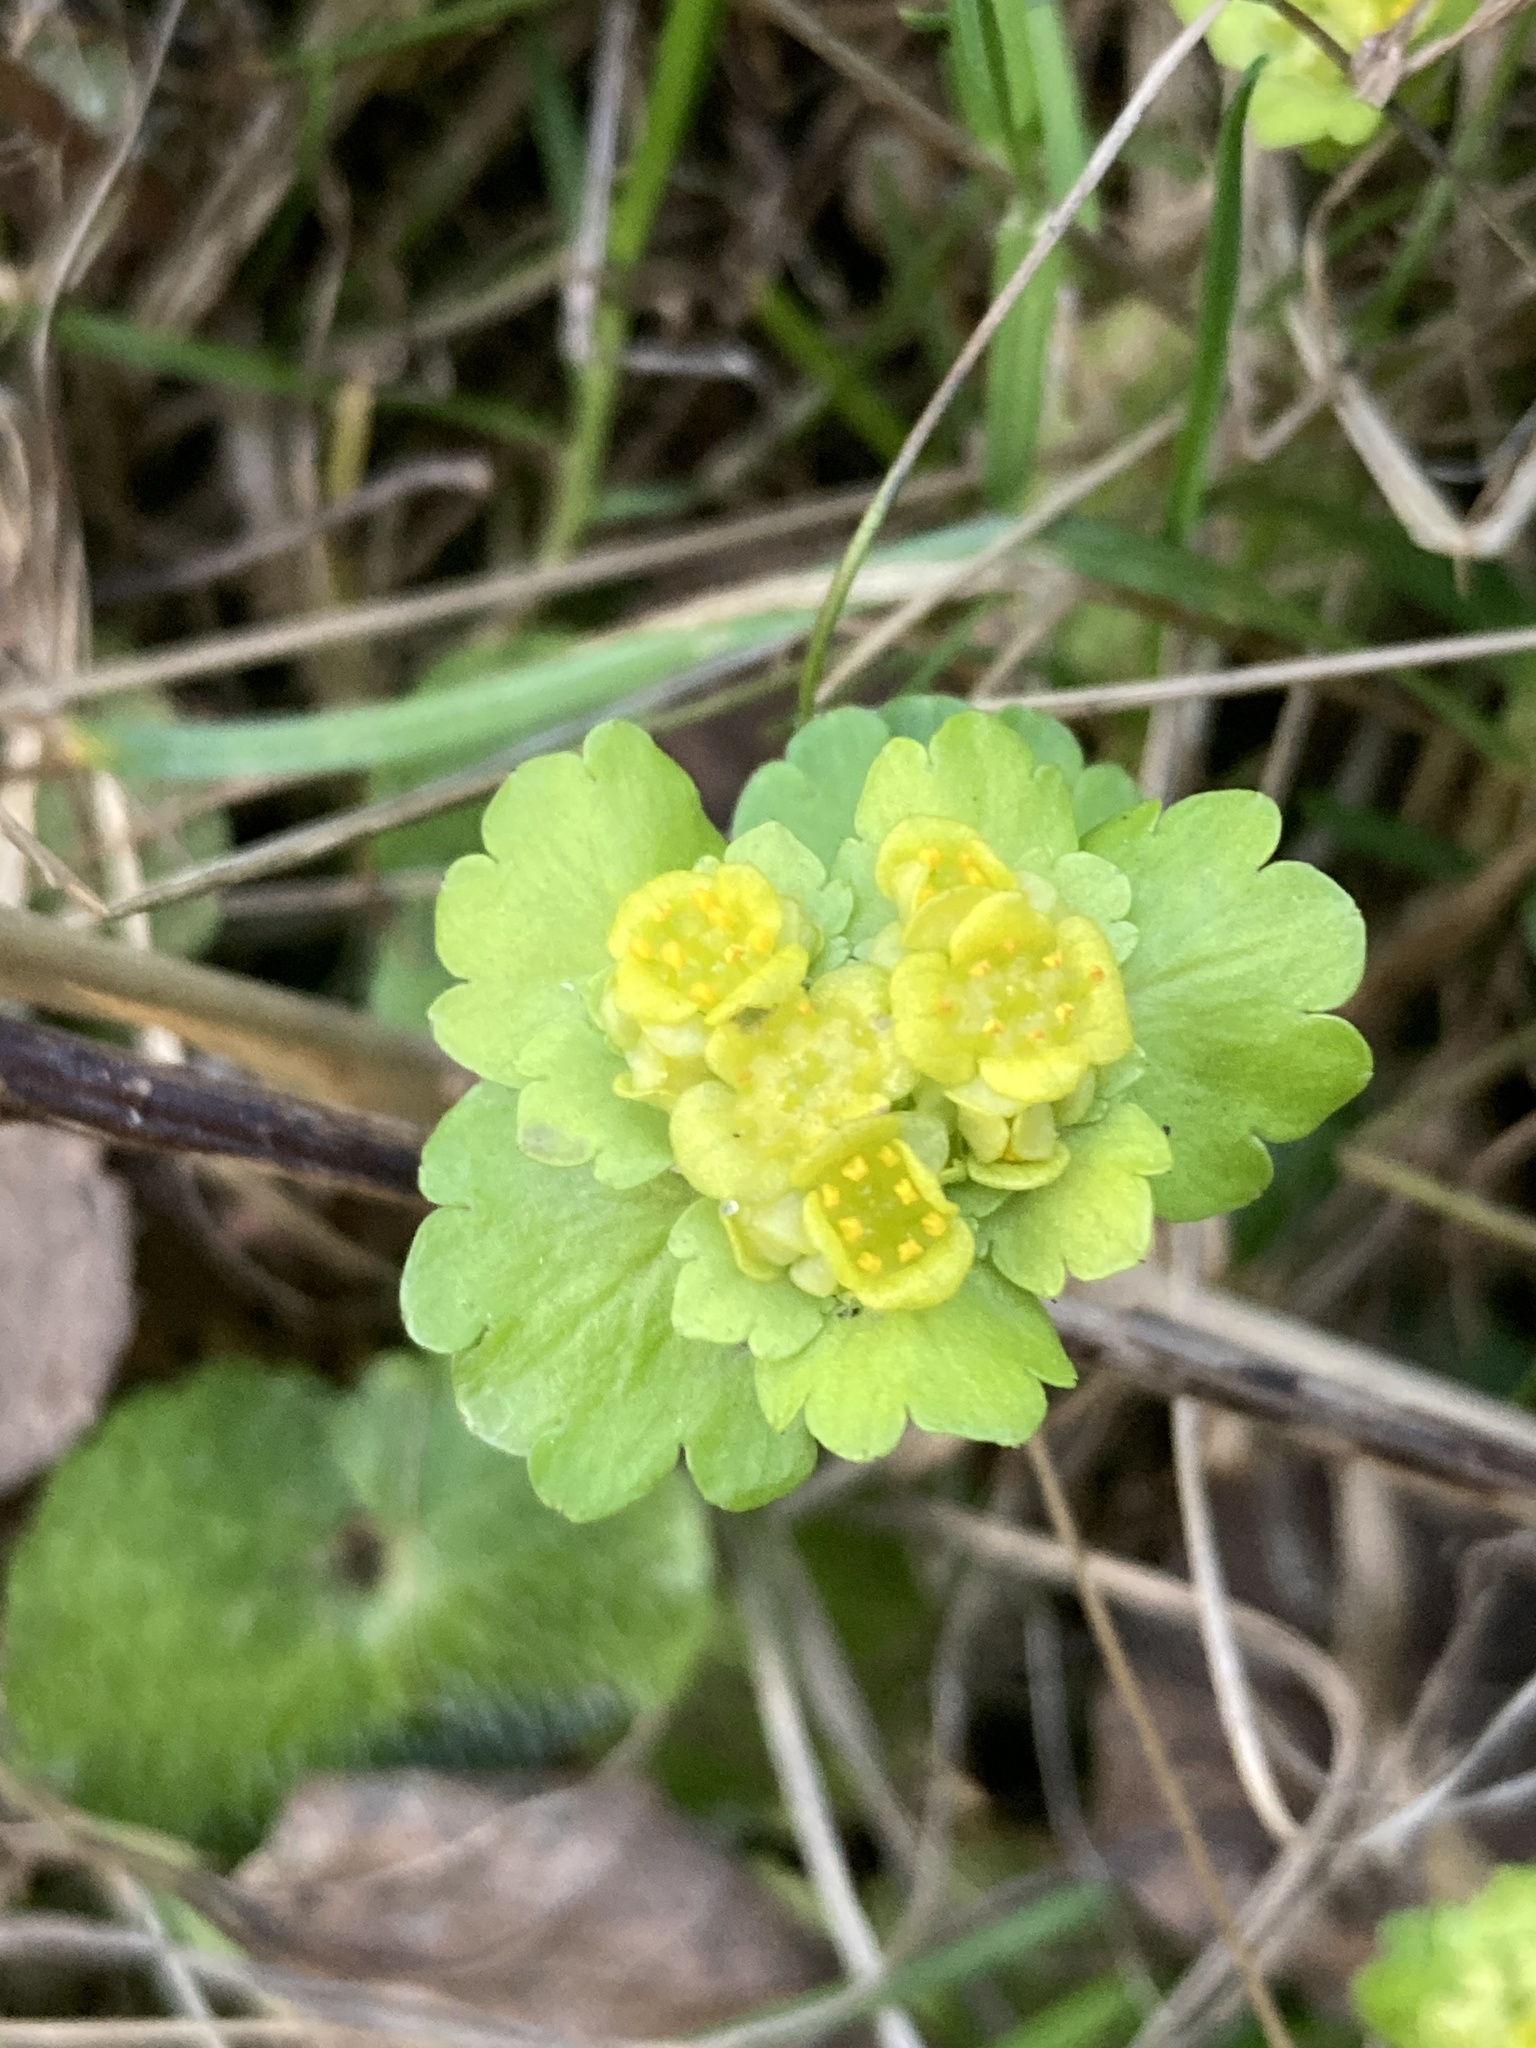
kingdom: Plantae
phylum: Tracheophyta
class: Magnoliopsida
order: Saxifragales
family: Saxifragaceae
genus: Chrysosplenium
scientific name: Chrysosplenium alternifolium
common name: Alternate-leaved golden-saxifrage
